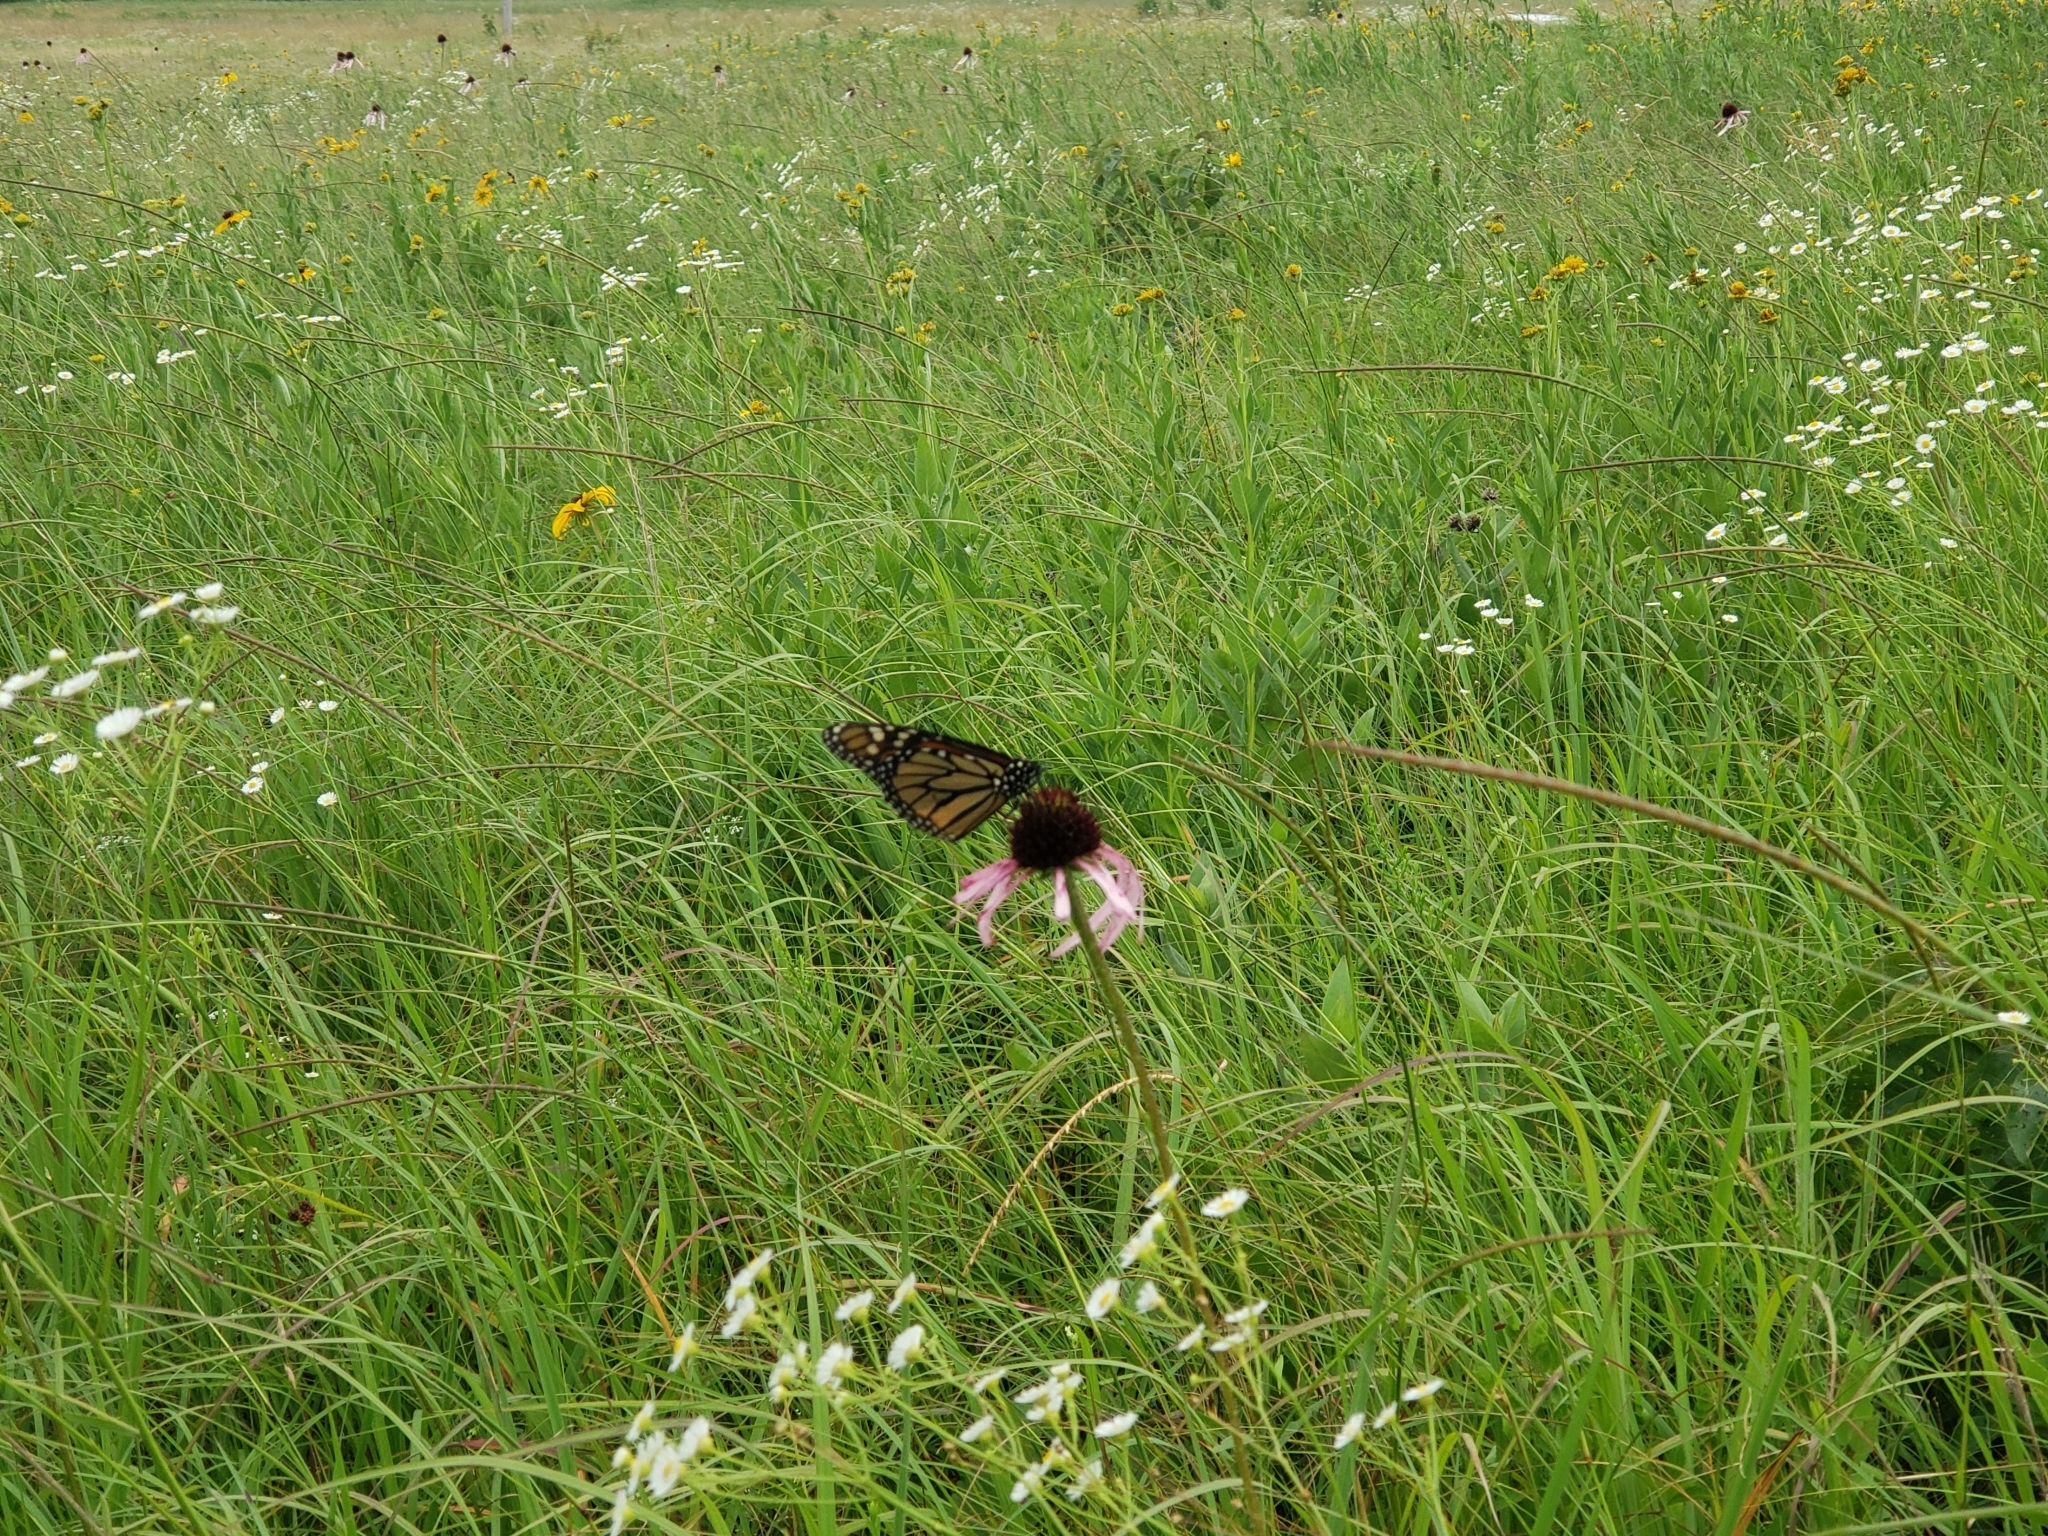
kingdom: Animalia
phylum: Arthropoda
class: Insecta
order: Lepidoptera
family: Nymphalidae
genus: Danaus
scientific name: Danaus plexippus
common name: Monarch
